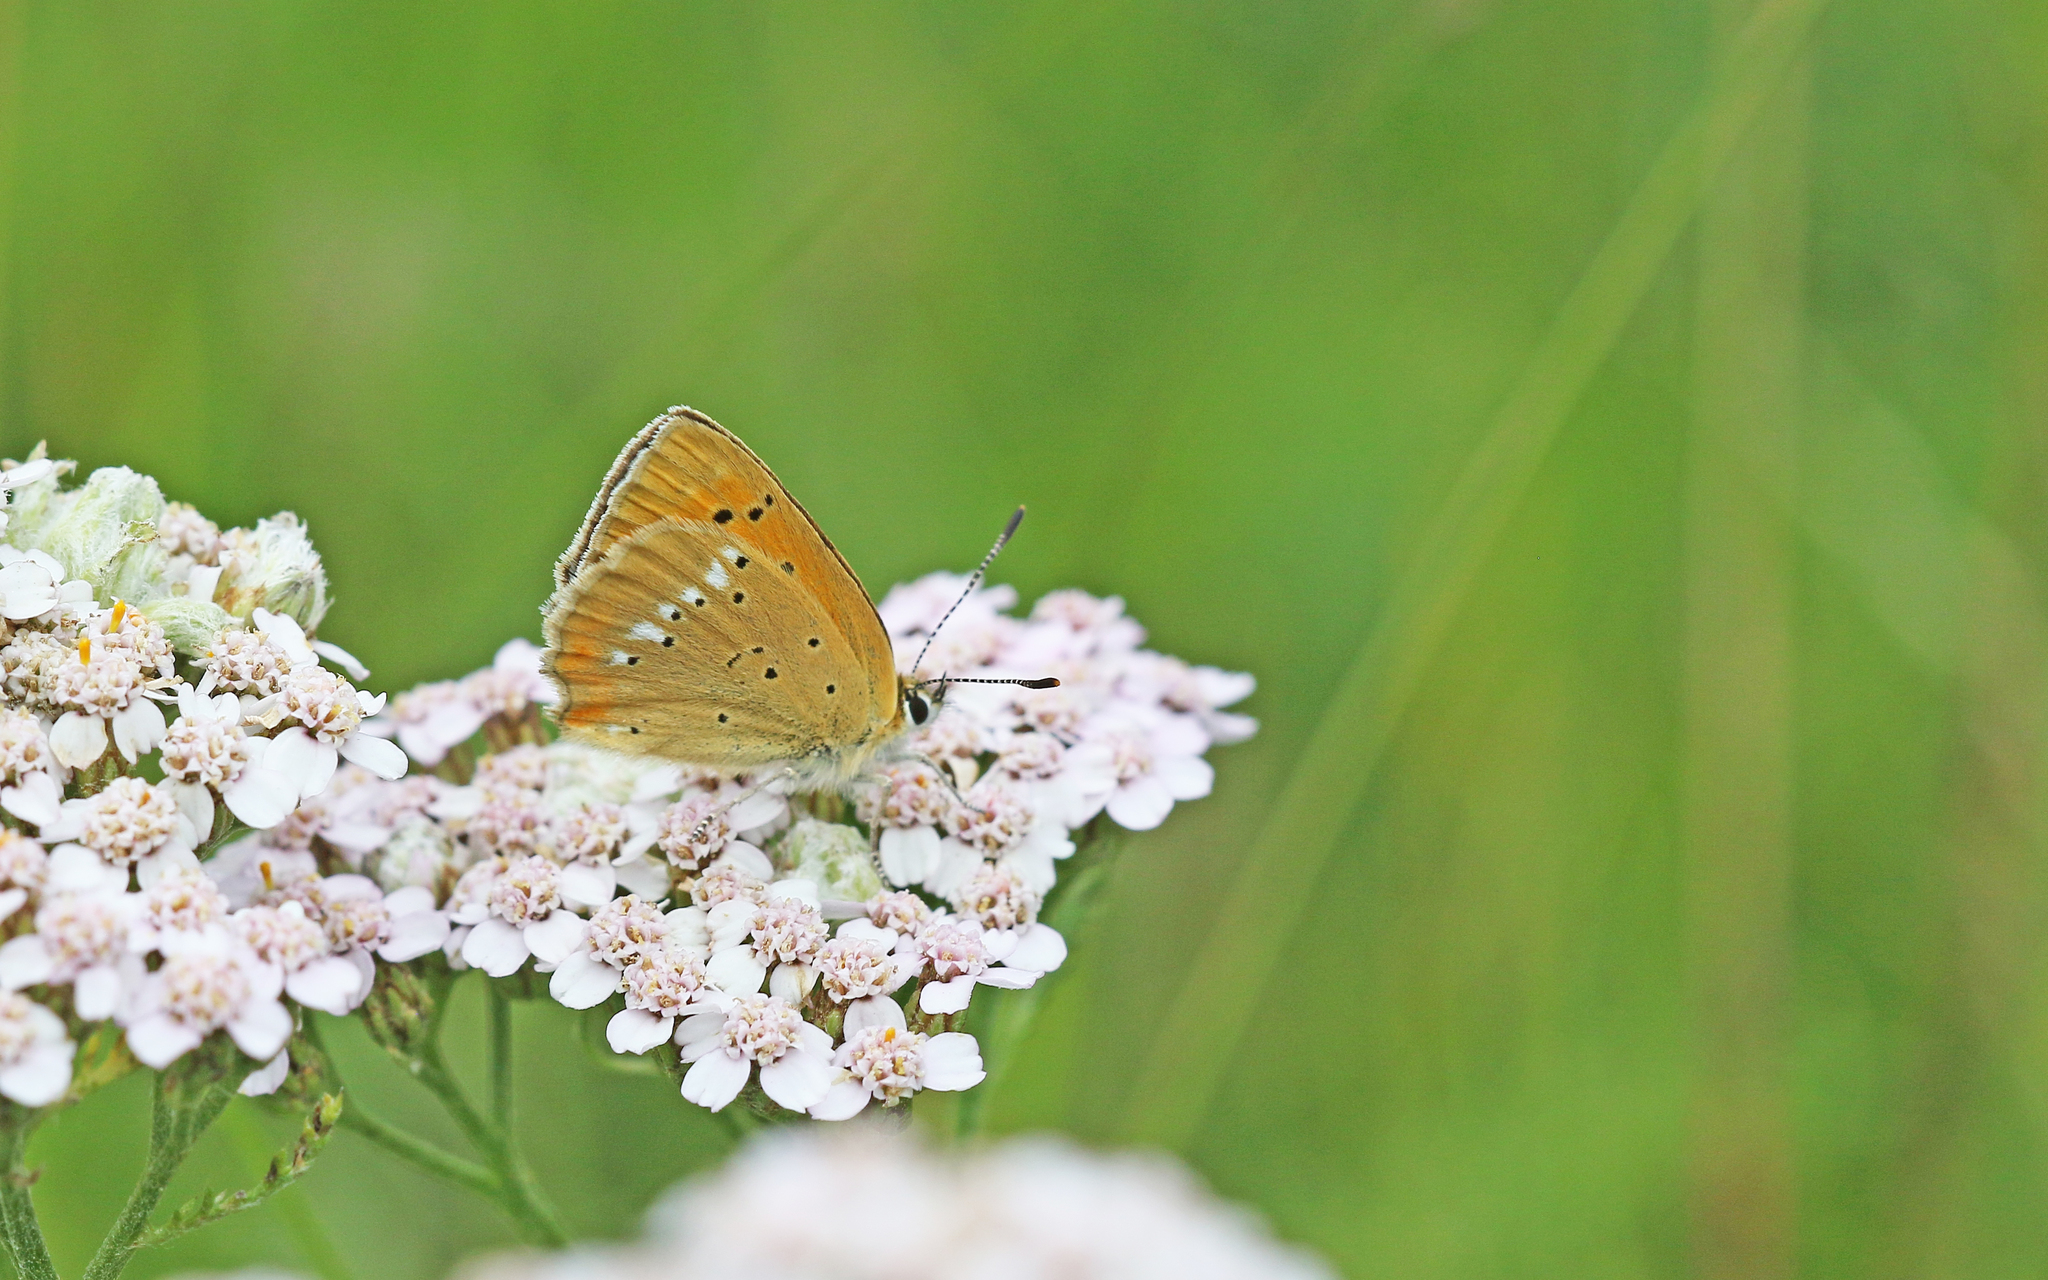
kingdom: Animalia
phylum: Arthropoda
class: Insecta
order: Lepidoptera
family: Lycaenidae
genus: Lycaena
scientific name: Lycaena virgaureae
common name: Scarce copper
